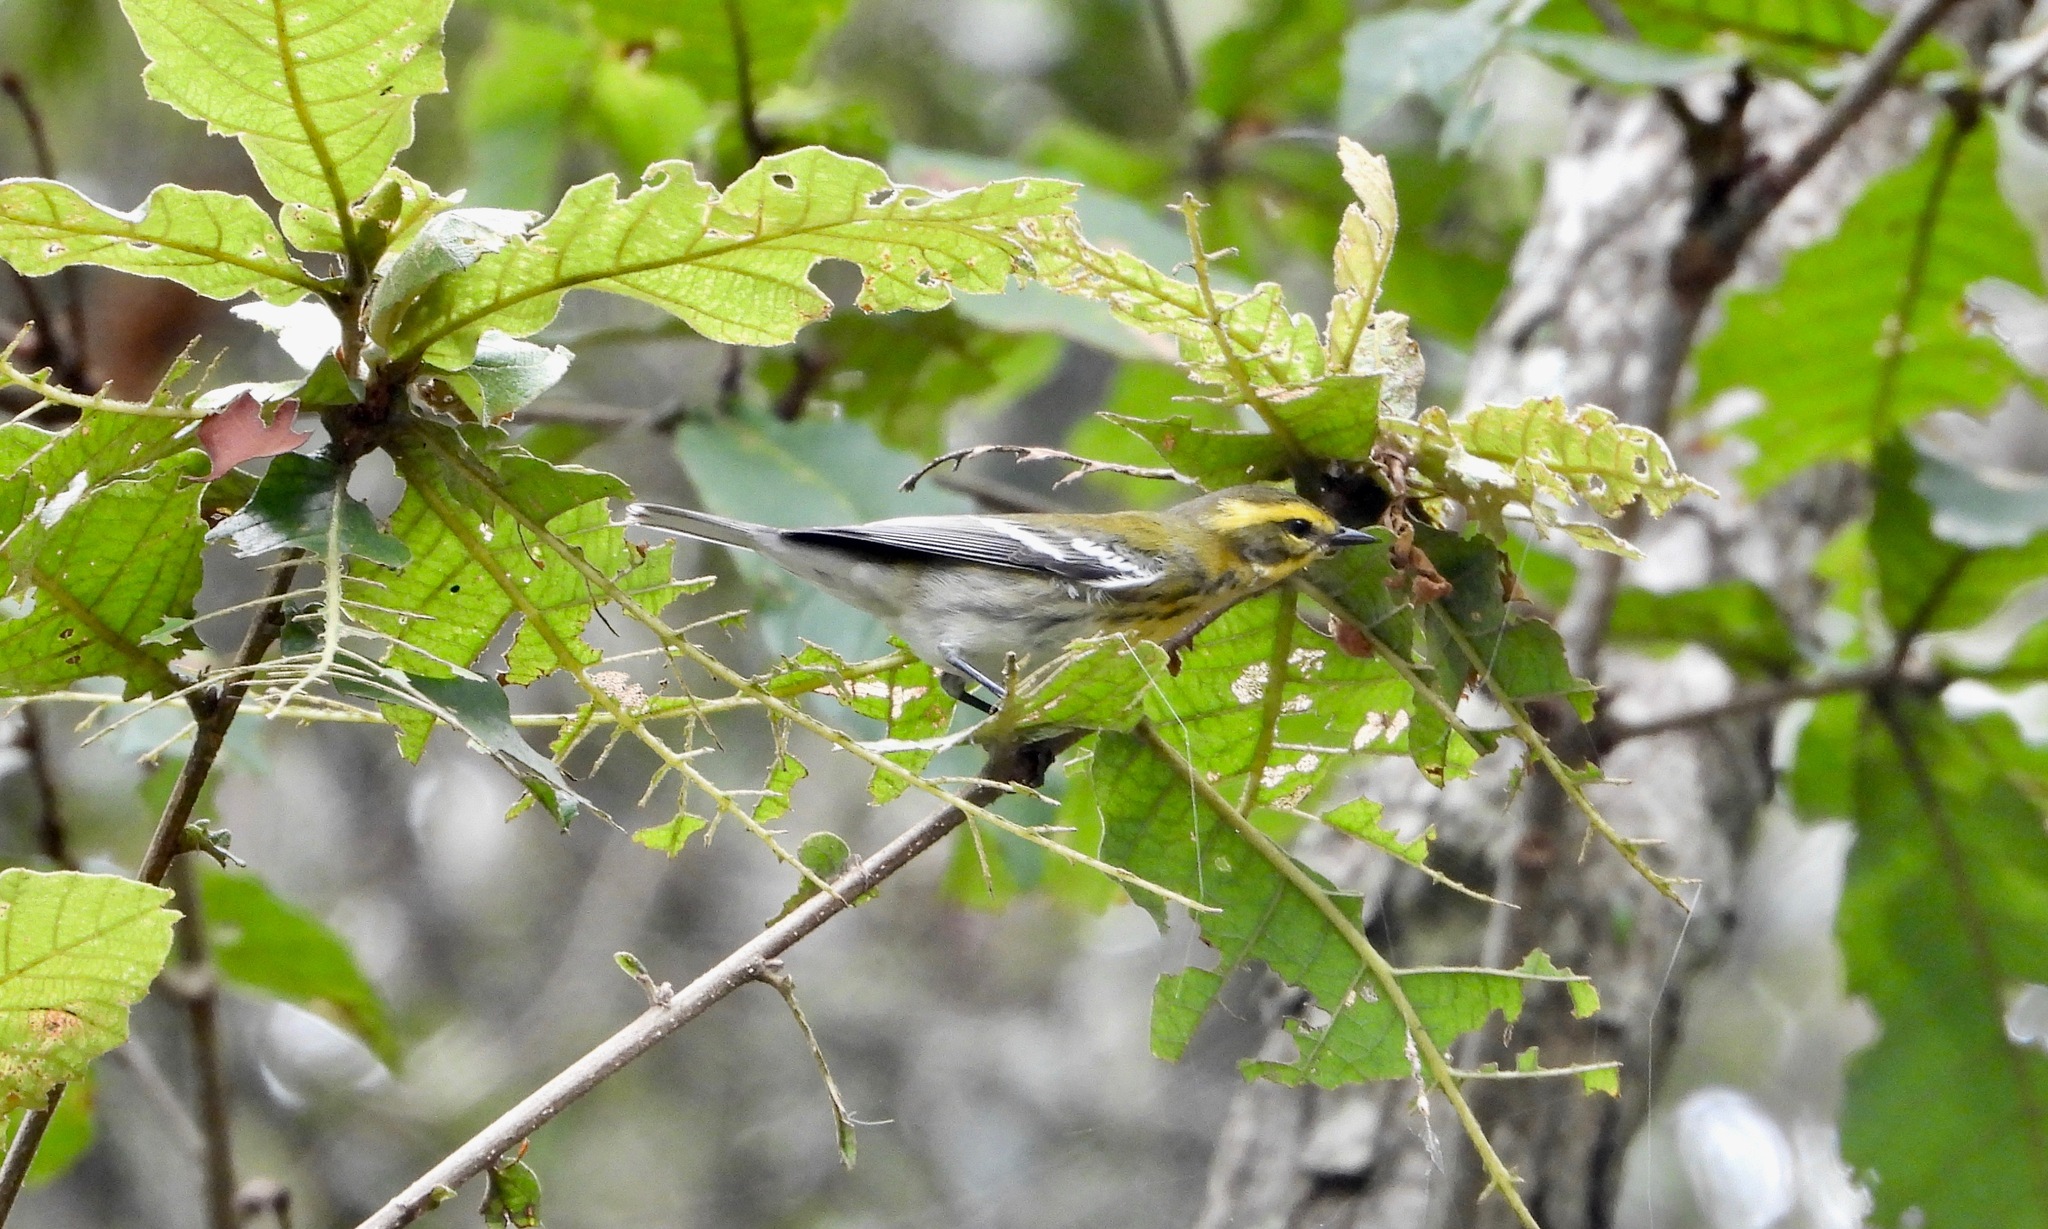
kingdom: Animalia
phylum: Chordata
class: Aves
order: Passeriformes
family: Parulidae
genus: Setophaga
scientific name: Setophaga townsendi
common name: Townsend's warbler
